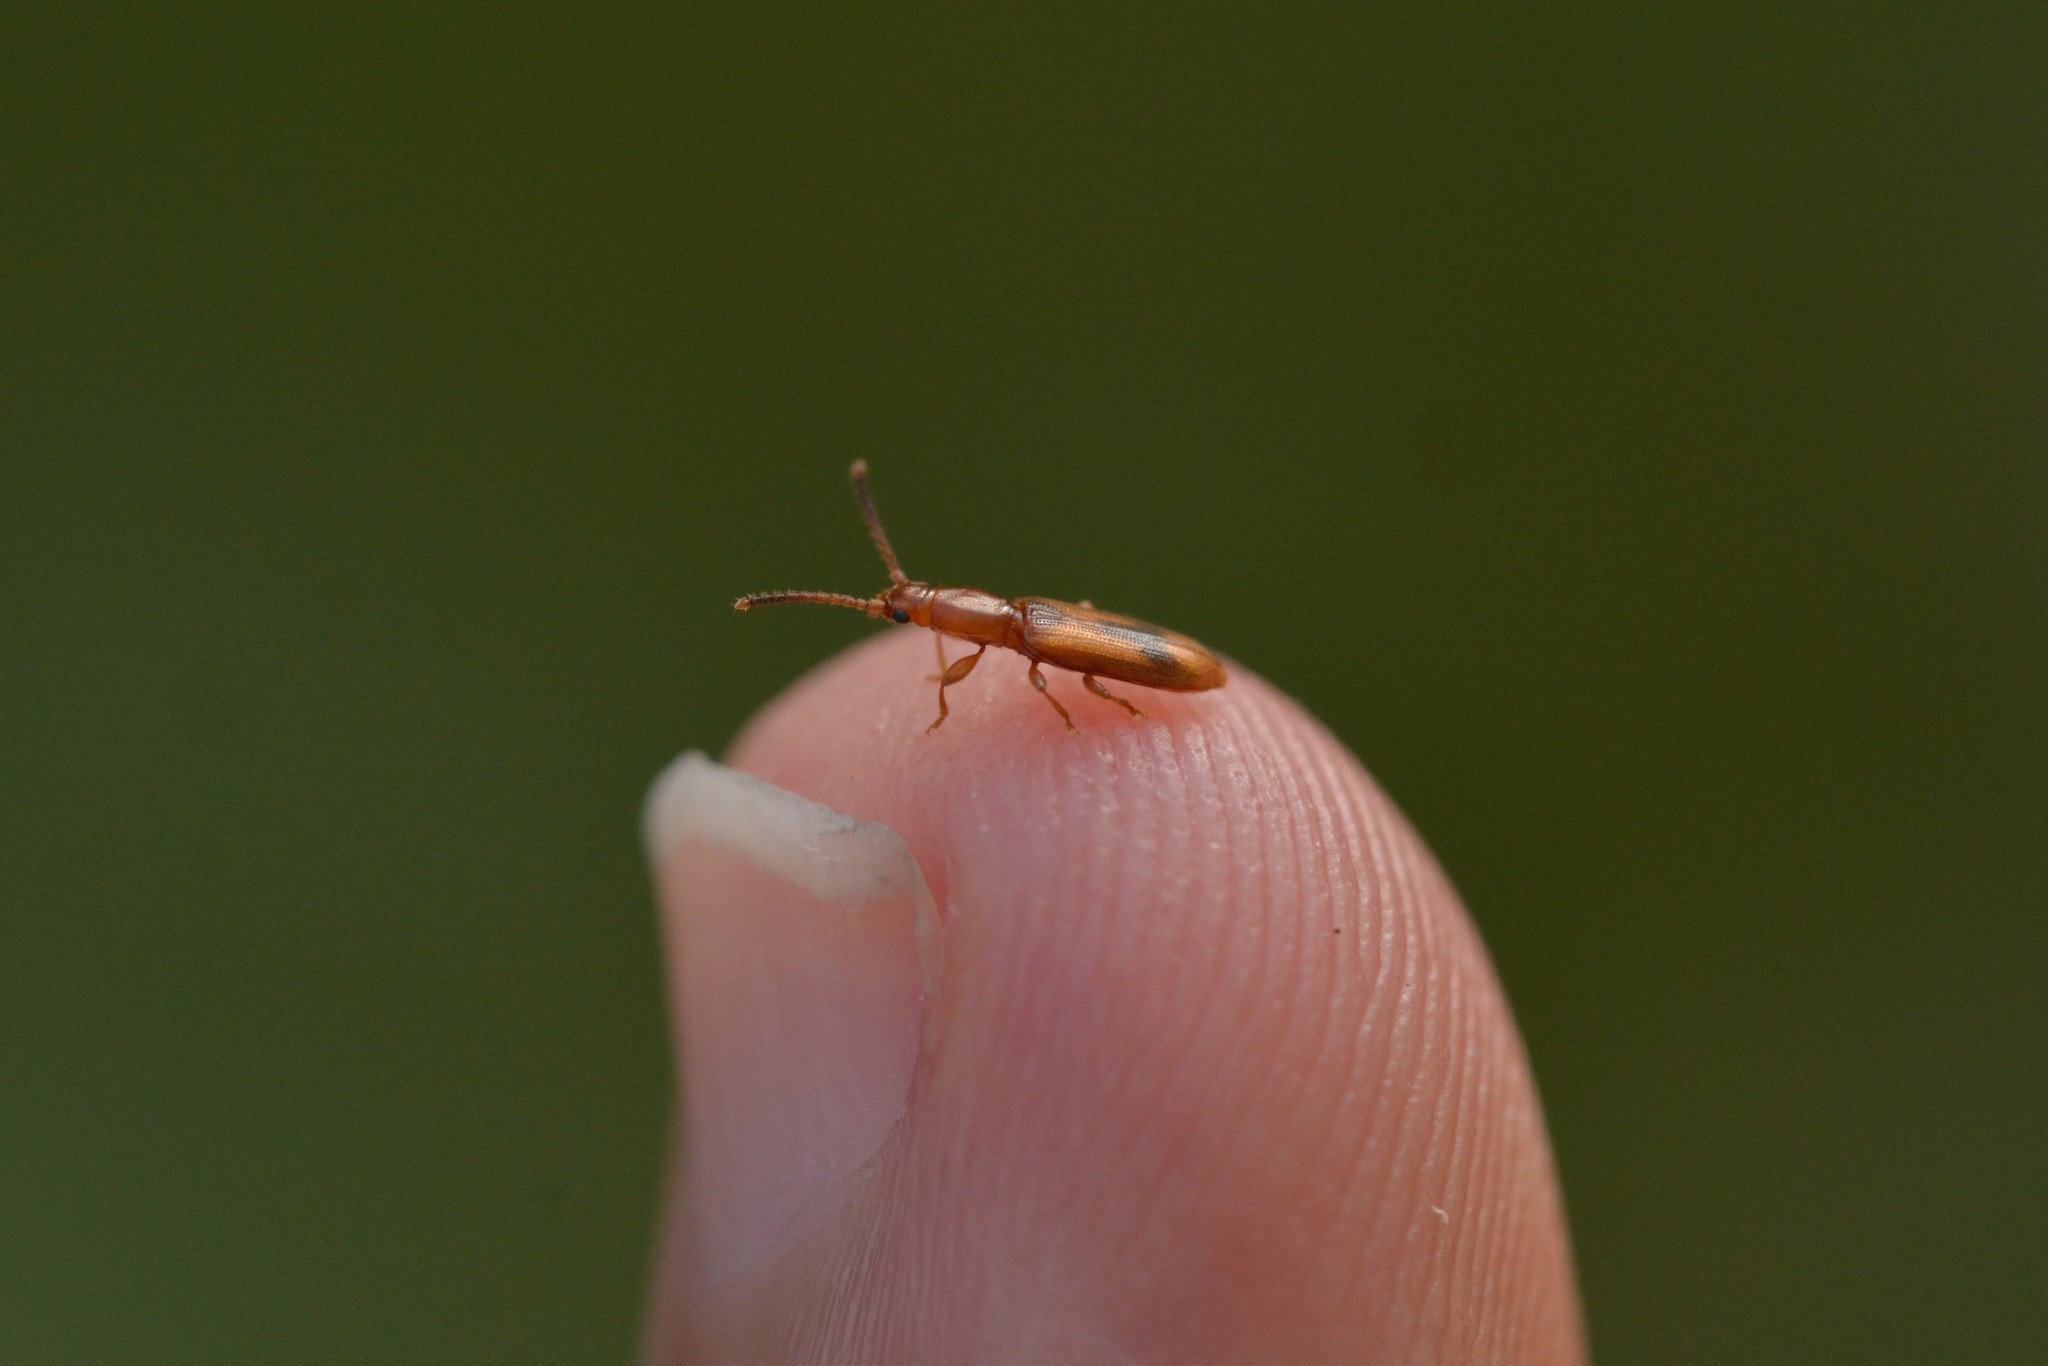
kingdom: Animalia
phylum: Arthropoda
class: Insecta
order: Coleoptera
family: Silvanidae
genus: Cryptamorpha
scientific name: Cryptamorpha desjardinsi
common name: Cryptamorpha
